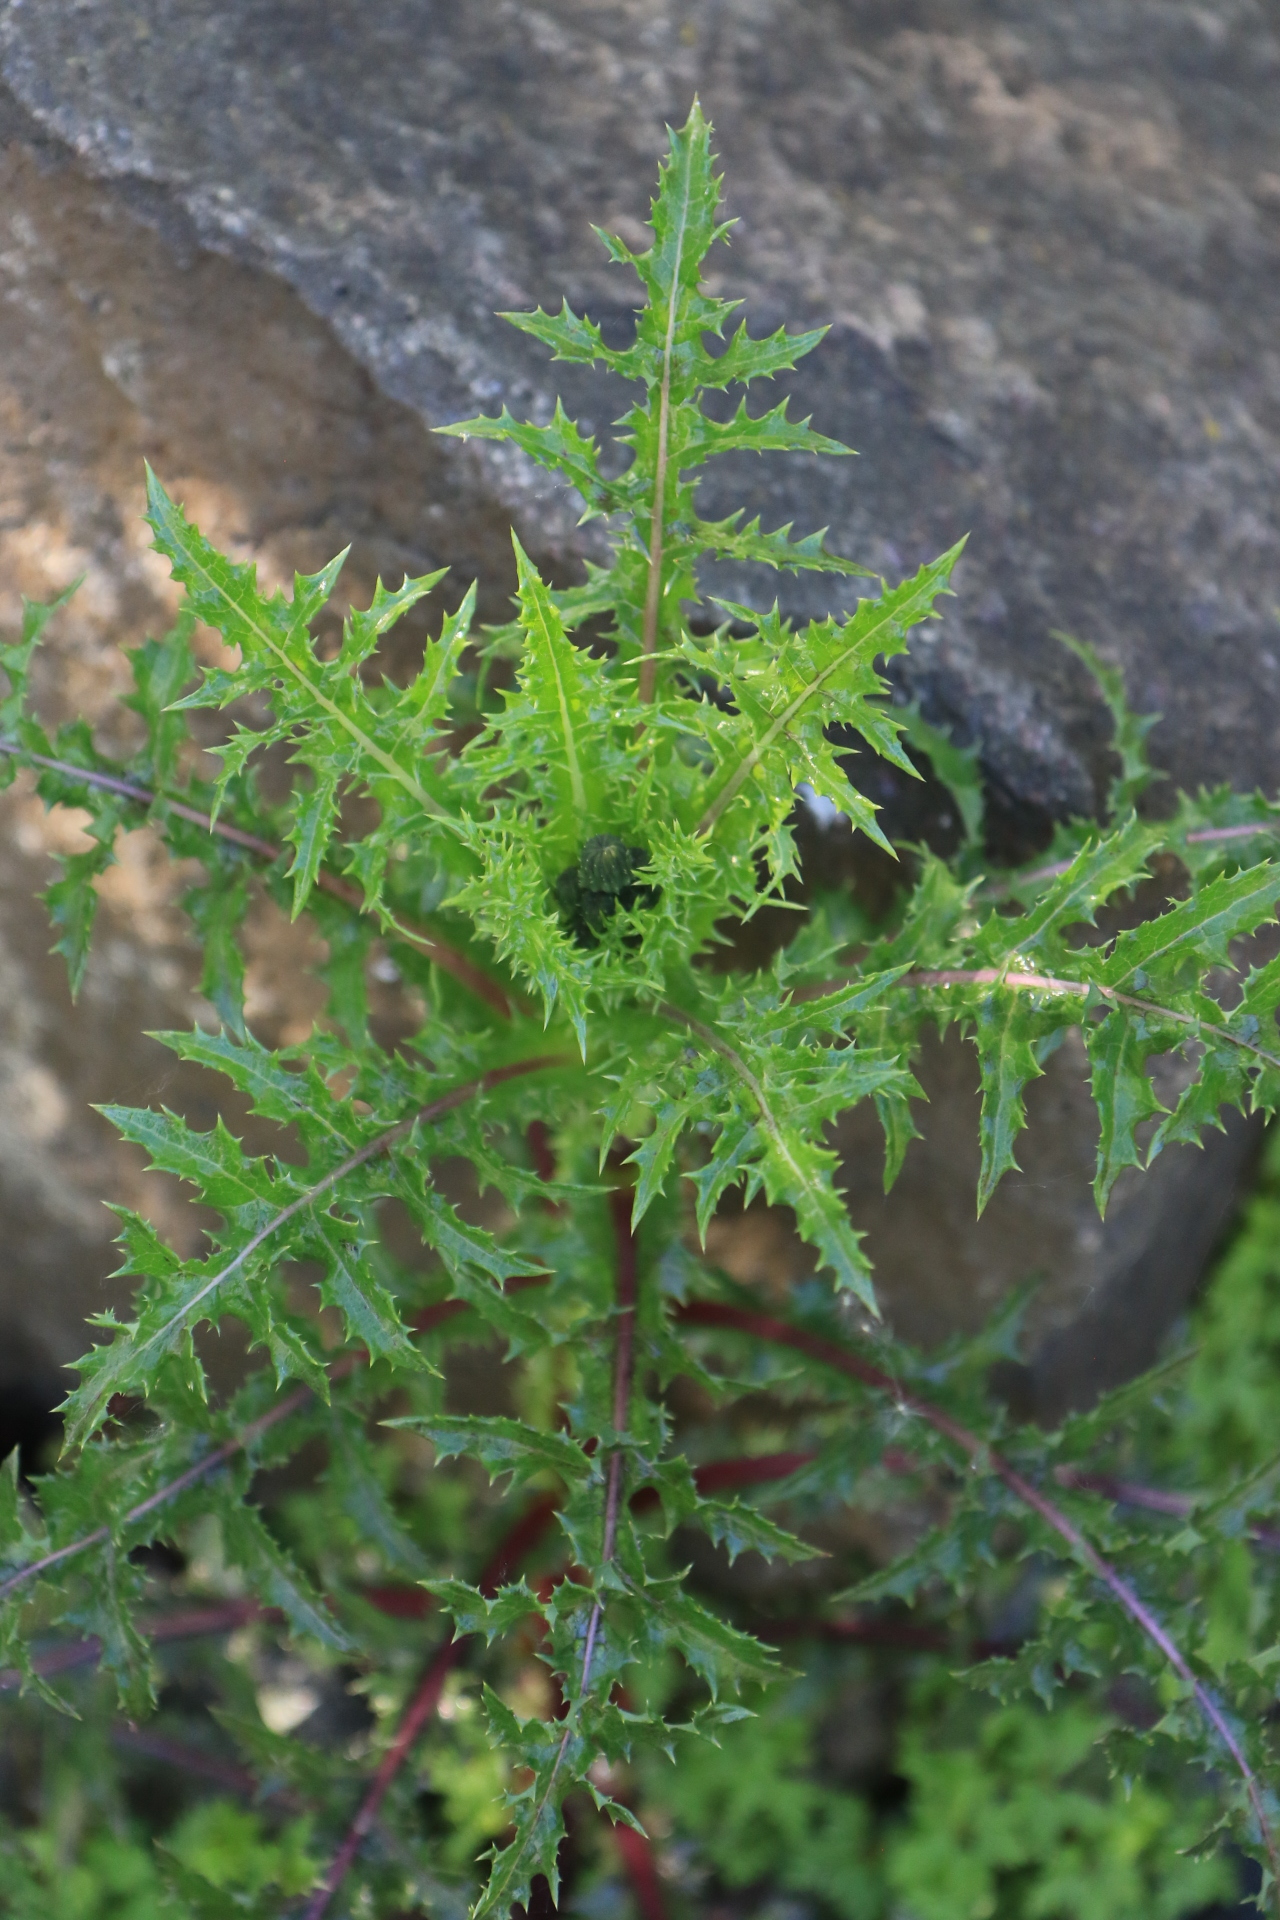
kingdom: Plantae
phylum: Tracheophyta
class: Magnoliopsida
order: Asterales
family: Asteraceae
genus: Sonchus
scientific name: Sonchus asper
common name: Prickly sow-thistle
